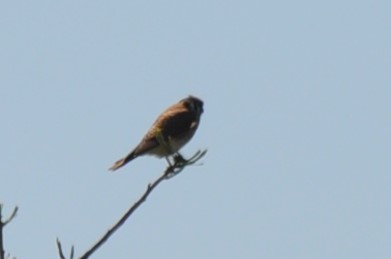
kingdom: Animalia
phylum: Chordata
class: Aves
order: Falconiformes
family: Falconidae
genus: Falco
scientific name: Falco sparverius
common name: American kestrel
